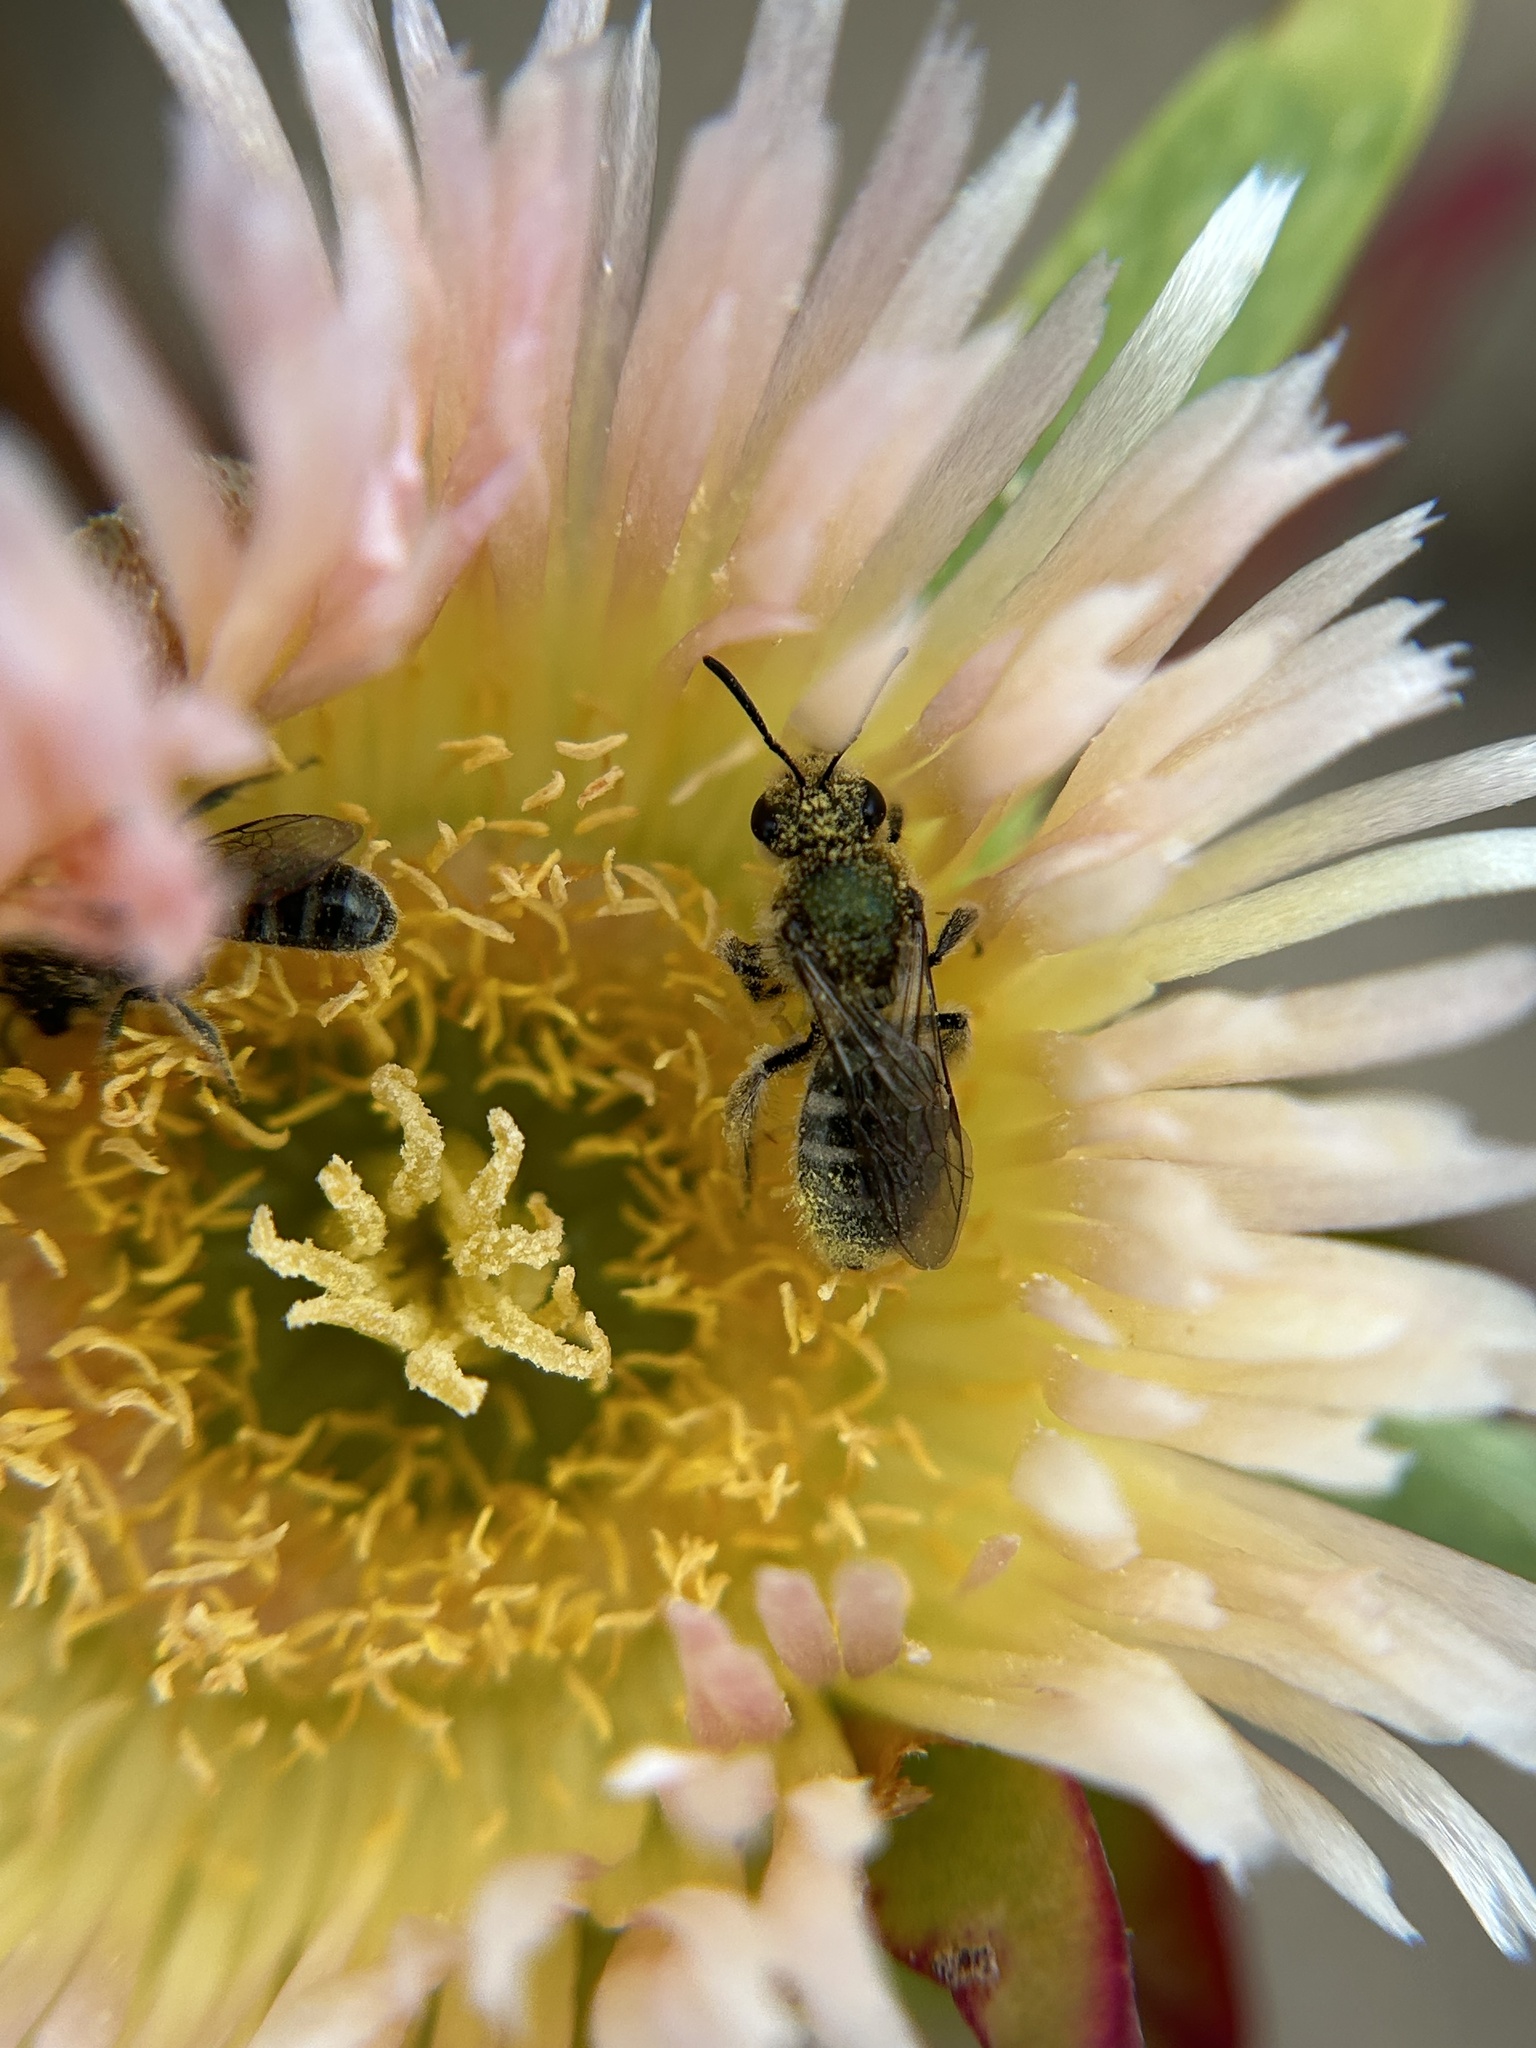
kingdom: Animalia
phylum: Arthropoda
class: Insecta
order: Hymenoptera
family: Halictidae
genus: Lasioglossum
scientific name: Lasioglossum pavonotum
